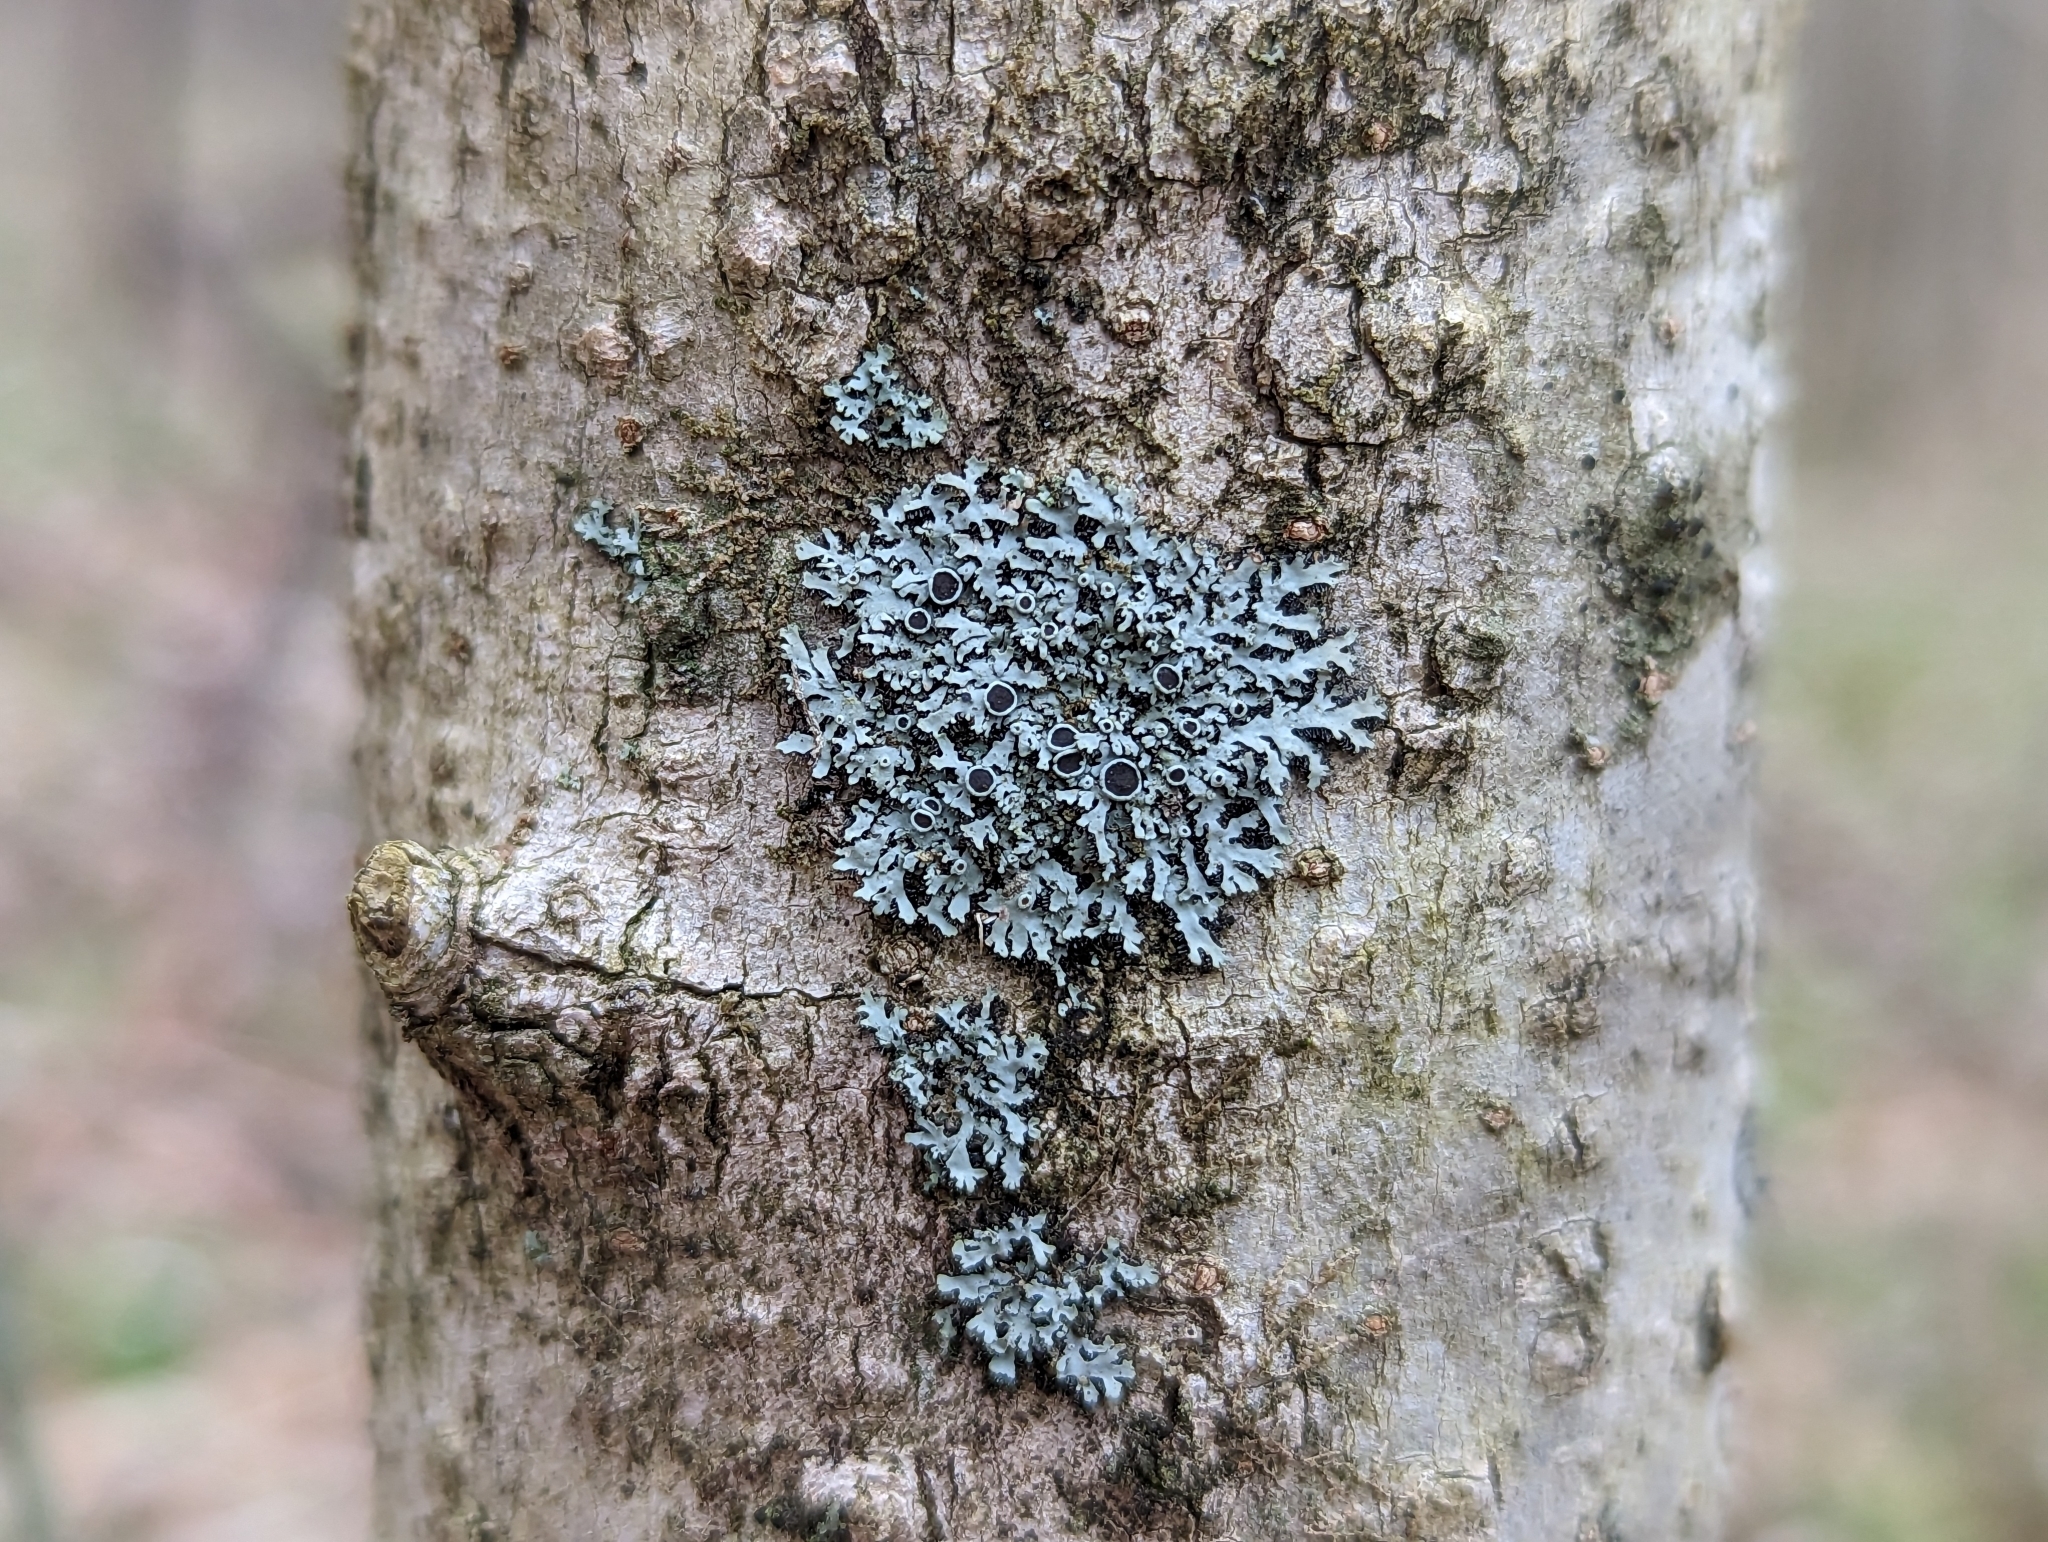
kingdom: Fungi
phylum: Ascomycota
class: Lecanoromycetes
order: Caliciales
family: Physciaceae
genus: Phaeophyscia
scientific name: Phaeophyscia ciliata
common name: Smooth shadow lichen
